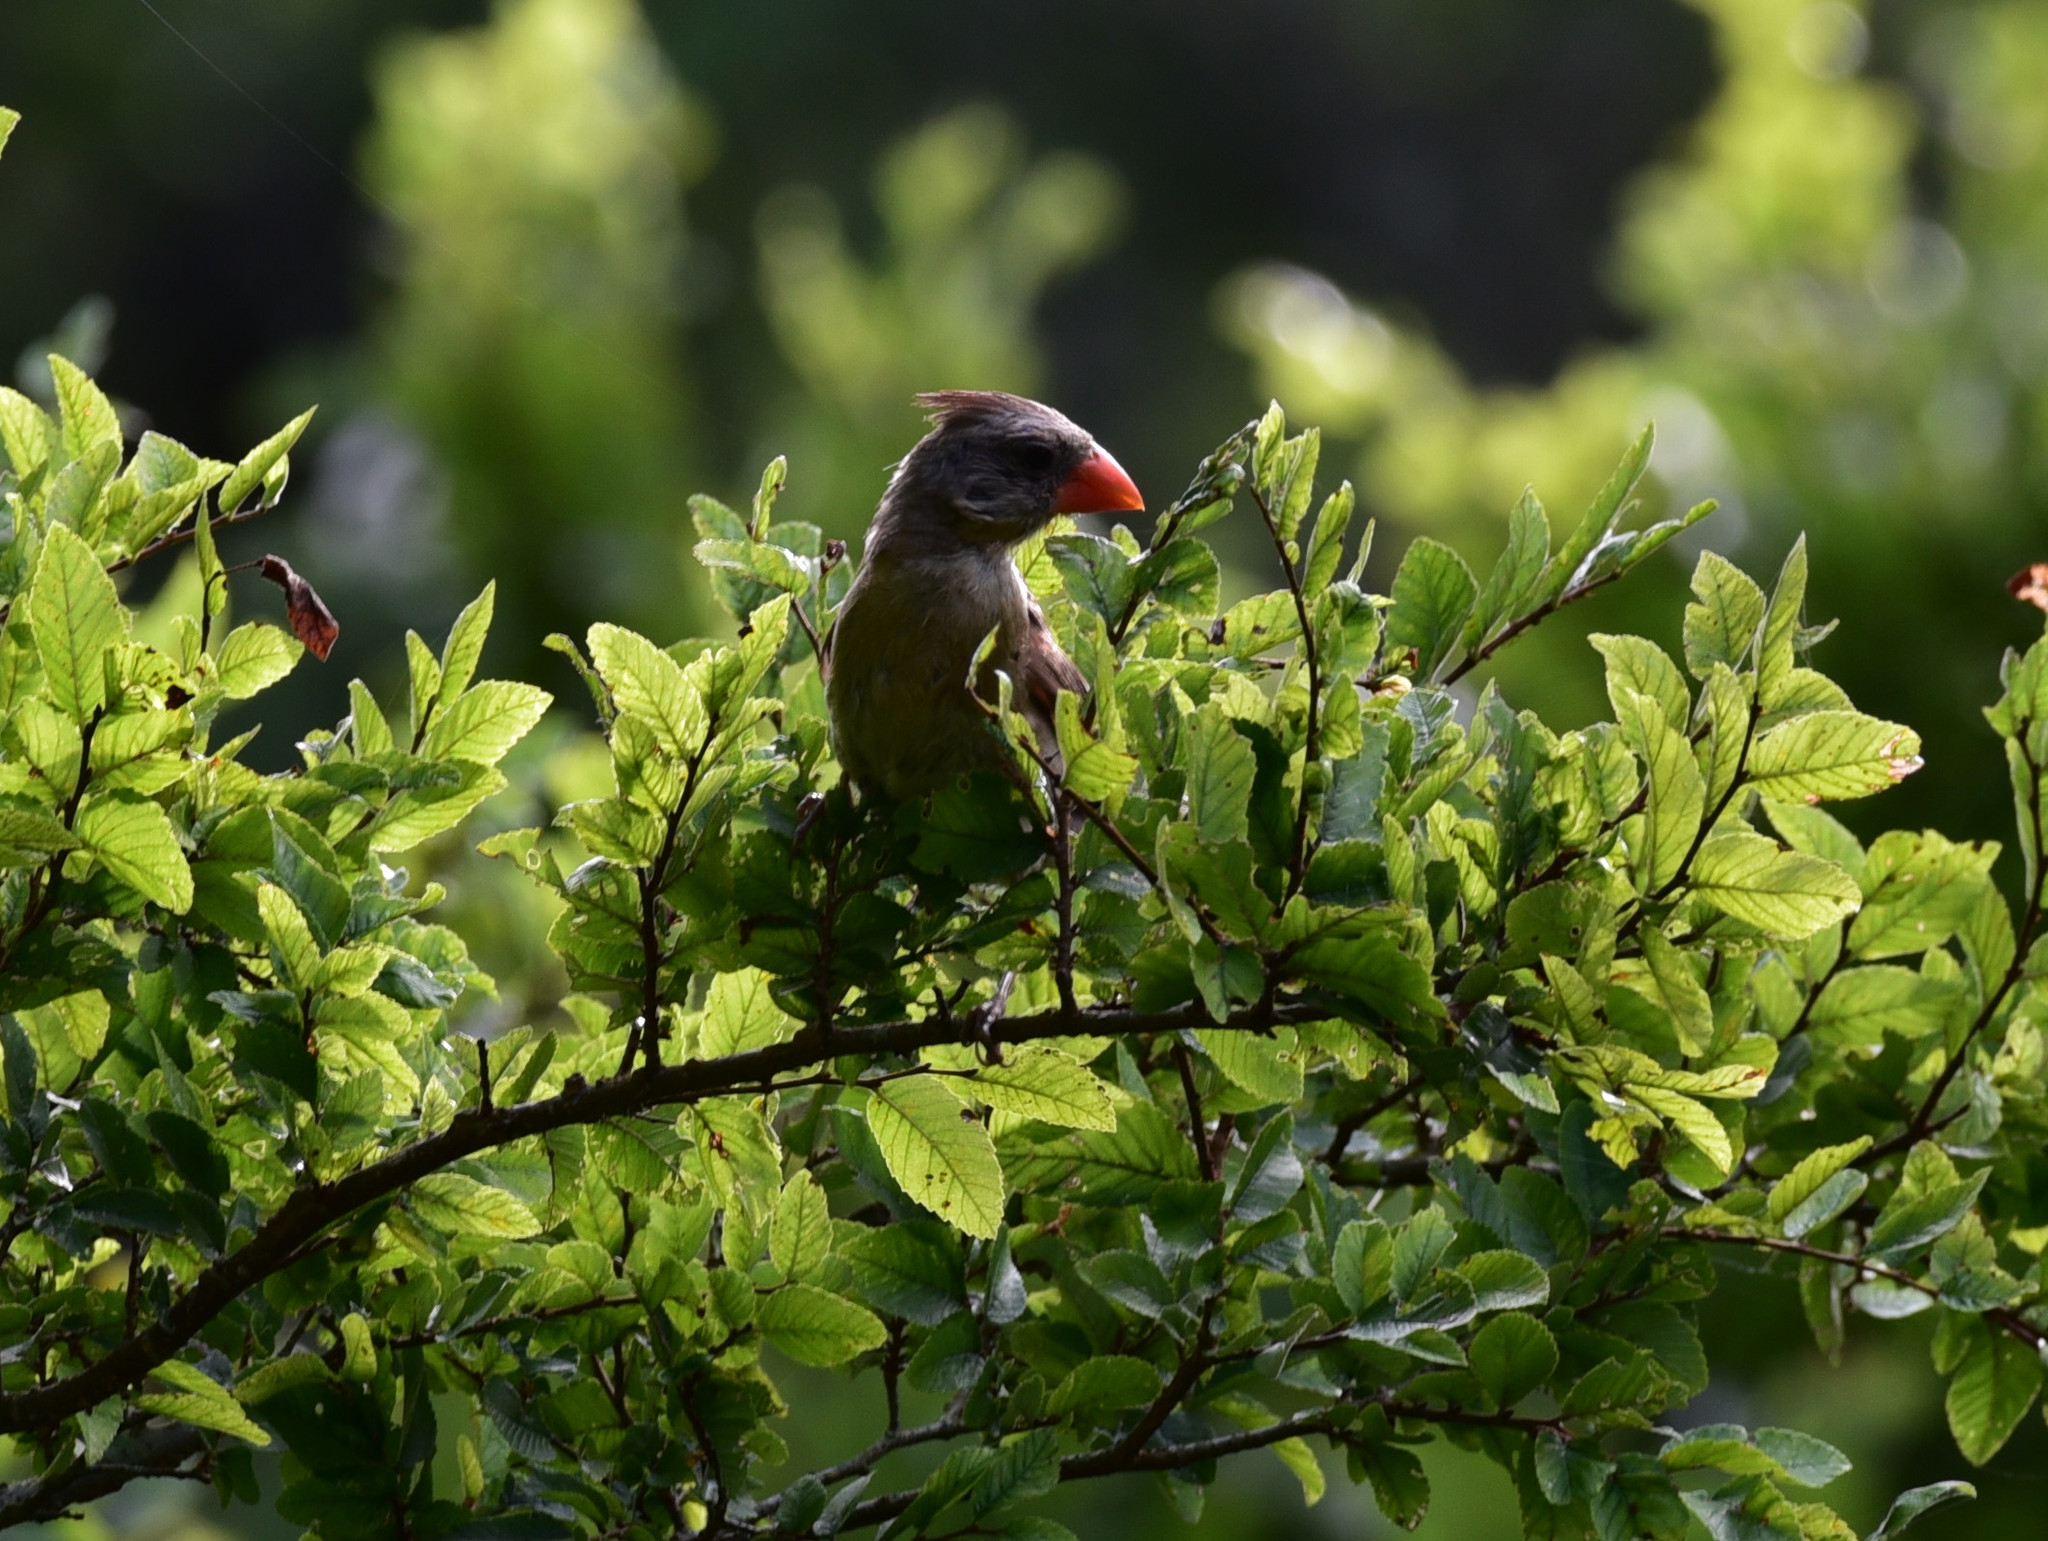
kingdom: Animalia
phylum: Chordata
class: Aves
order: Passeriformes
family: Cardinalidae
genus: Cardinalis
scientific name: Cardinalis cardinalis
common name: Northern cardinal
